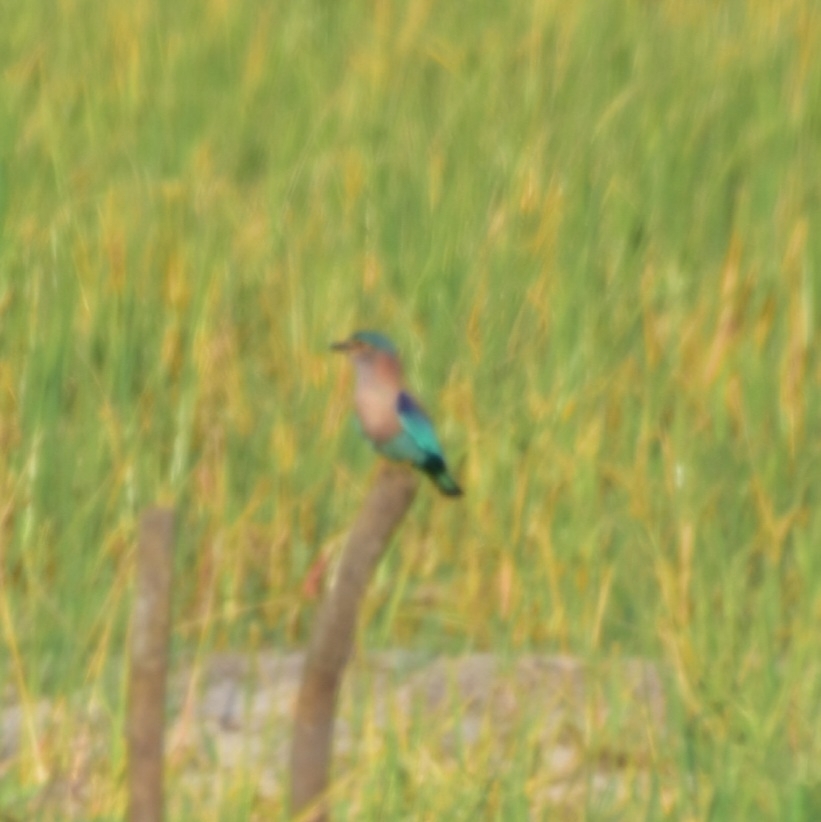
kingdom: Animalia
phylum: Chordata
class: Aves
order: Coraciiformes
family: Coraciidae
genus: Coracias
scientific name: Coracias benghalensis
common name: Indian roller
